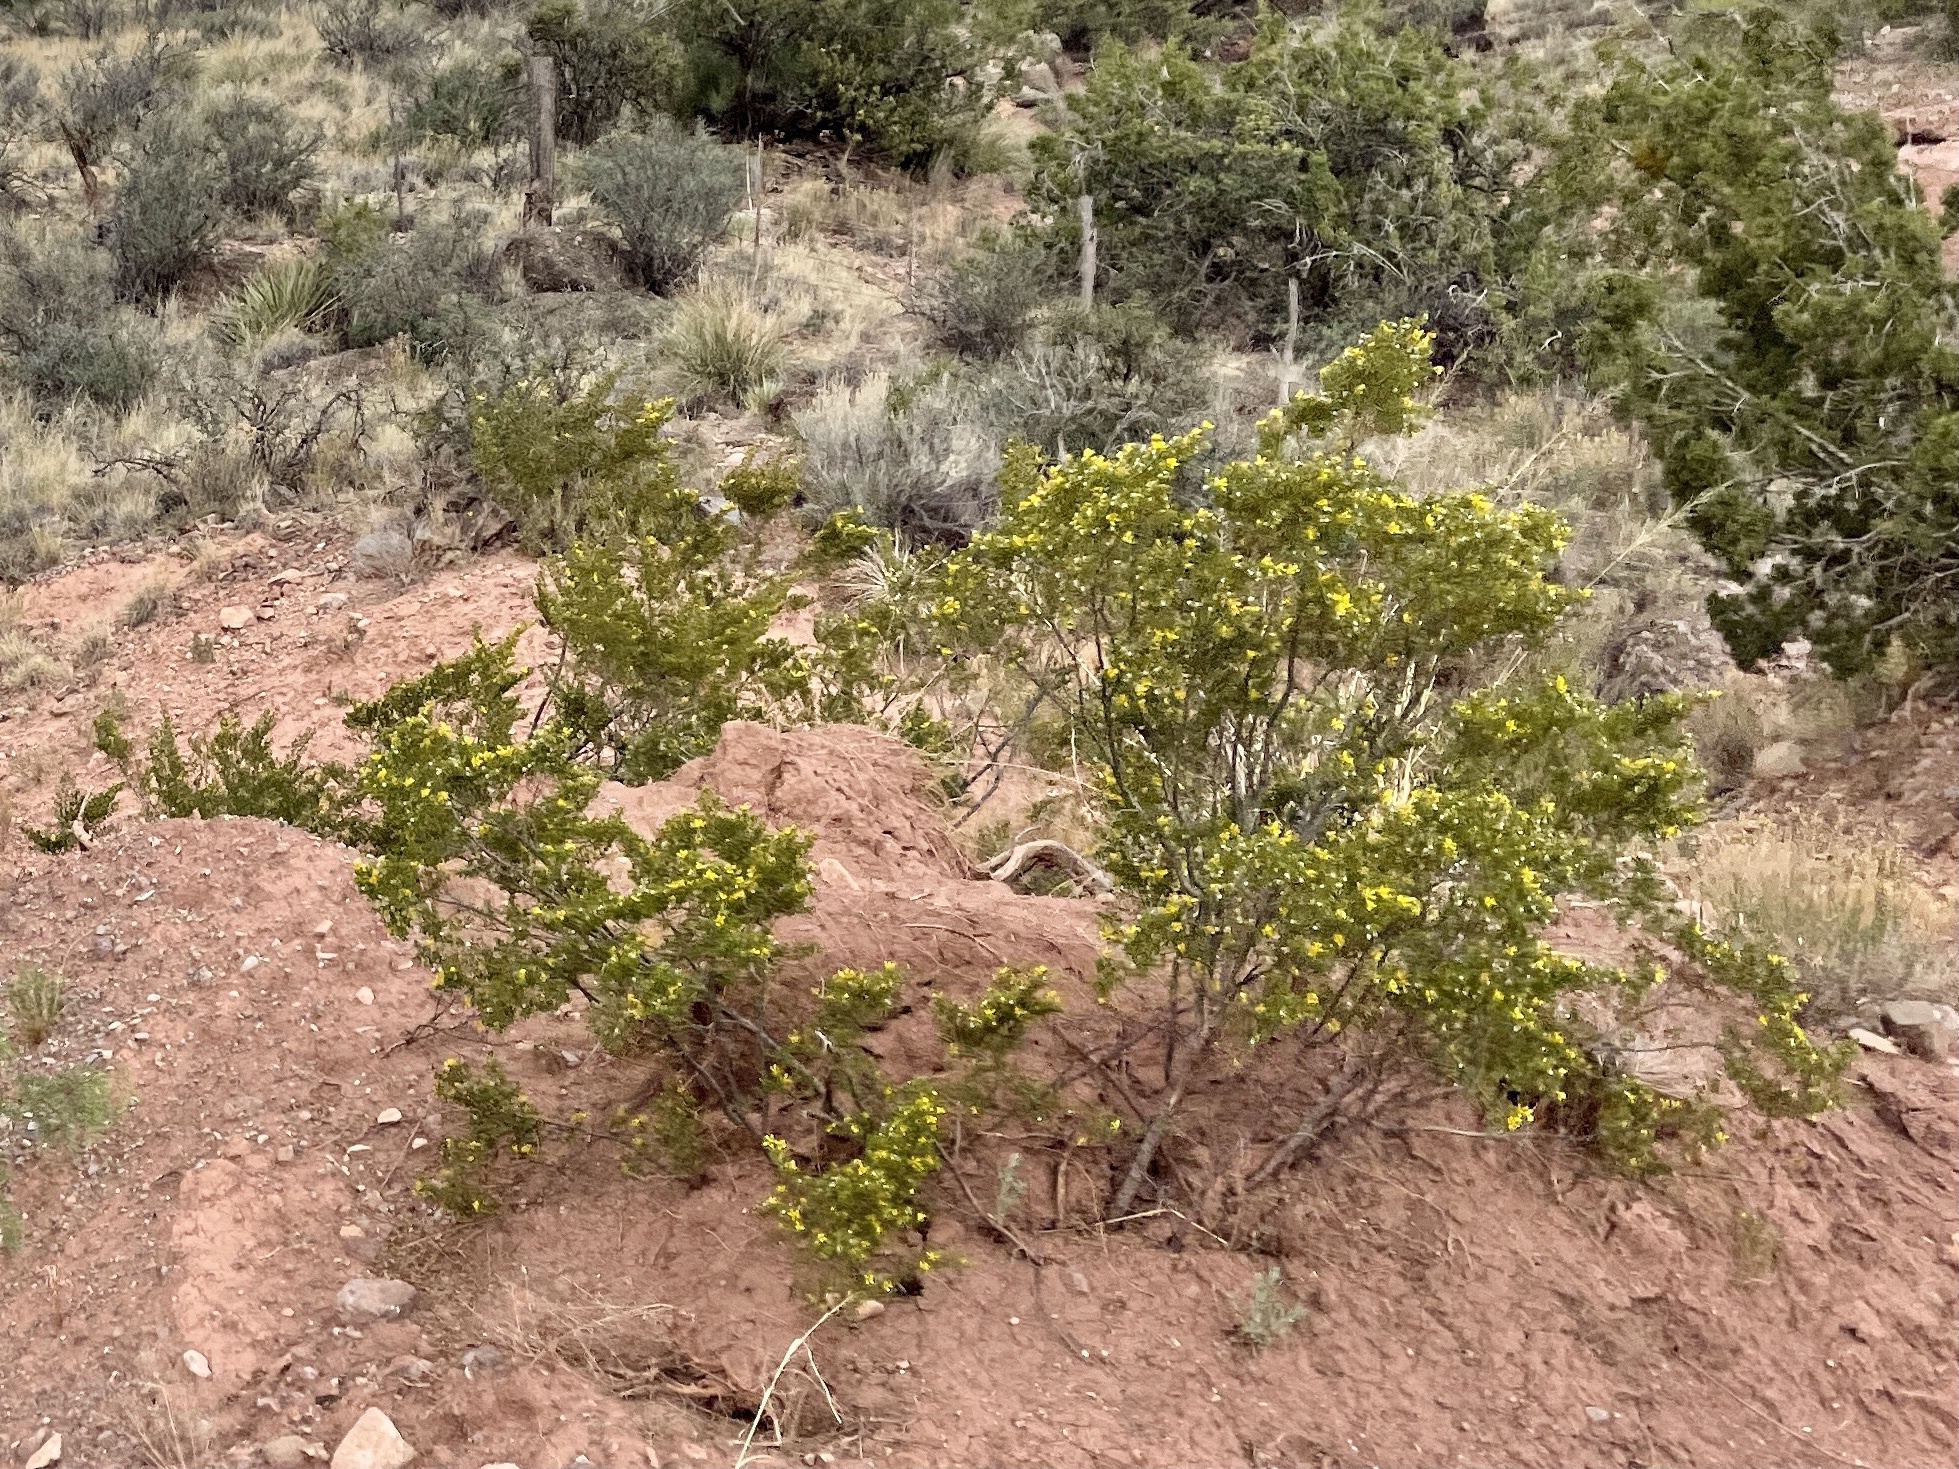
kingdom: Plantae
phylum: Tracheophyta
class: Magnoliopsida
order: Zygophyllales
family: Zygophyllaceae
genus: Larrea
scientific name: Larrea tridentata
